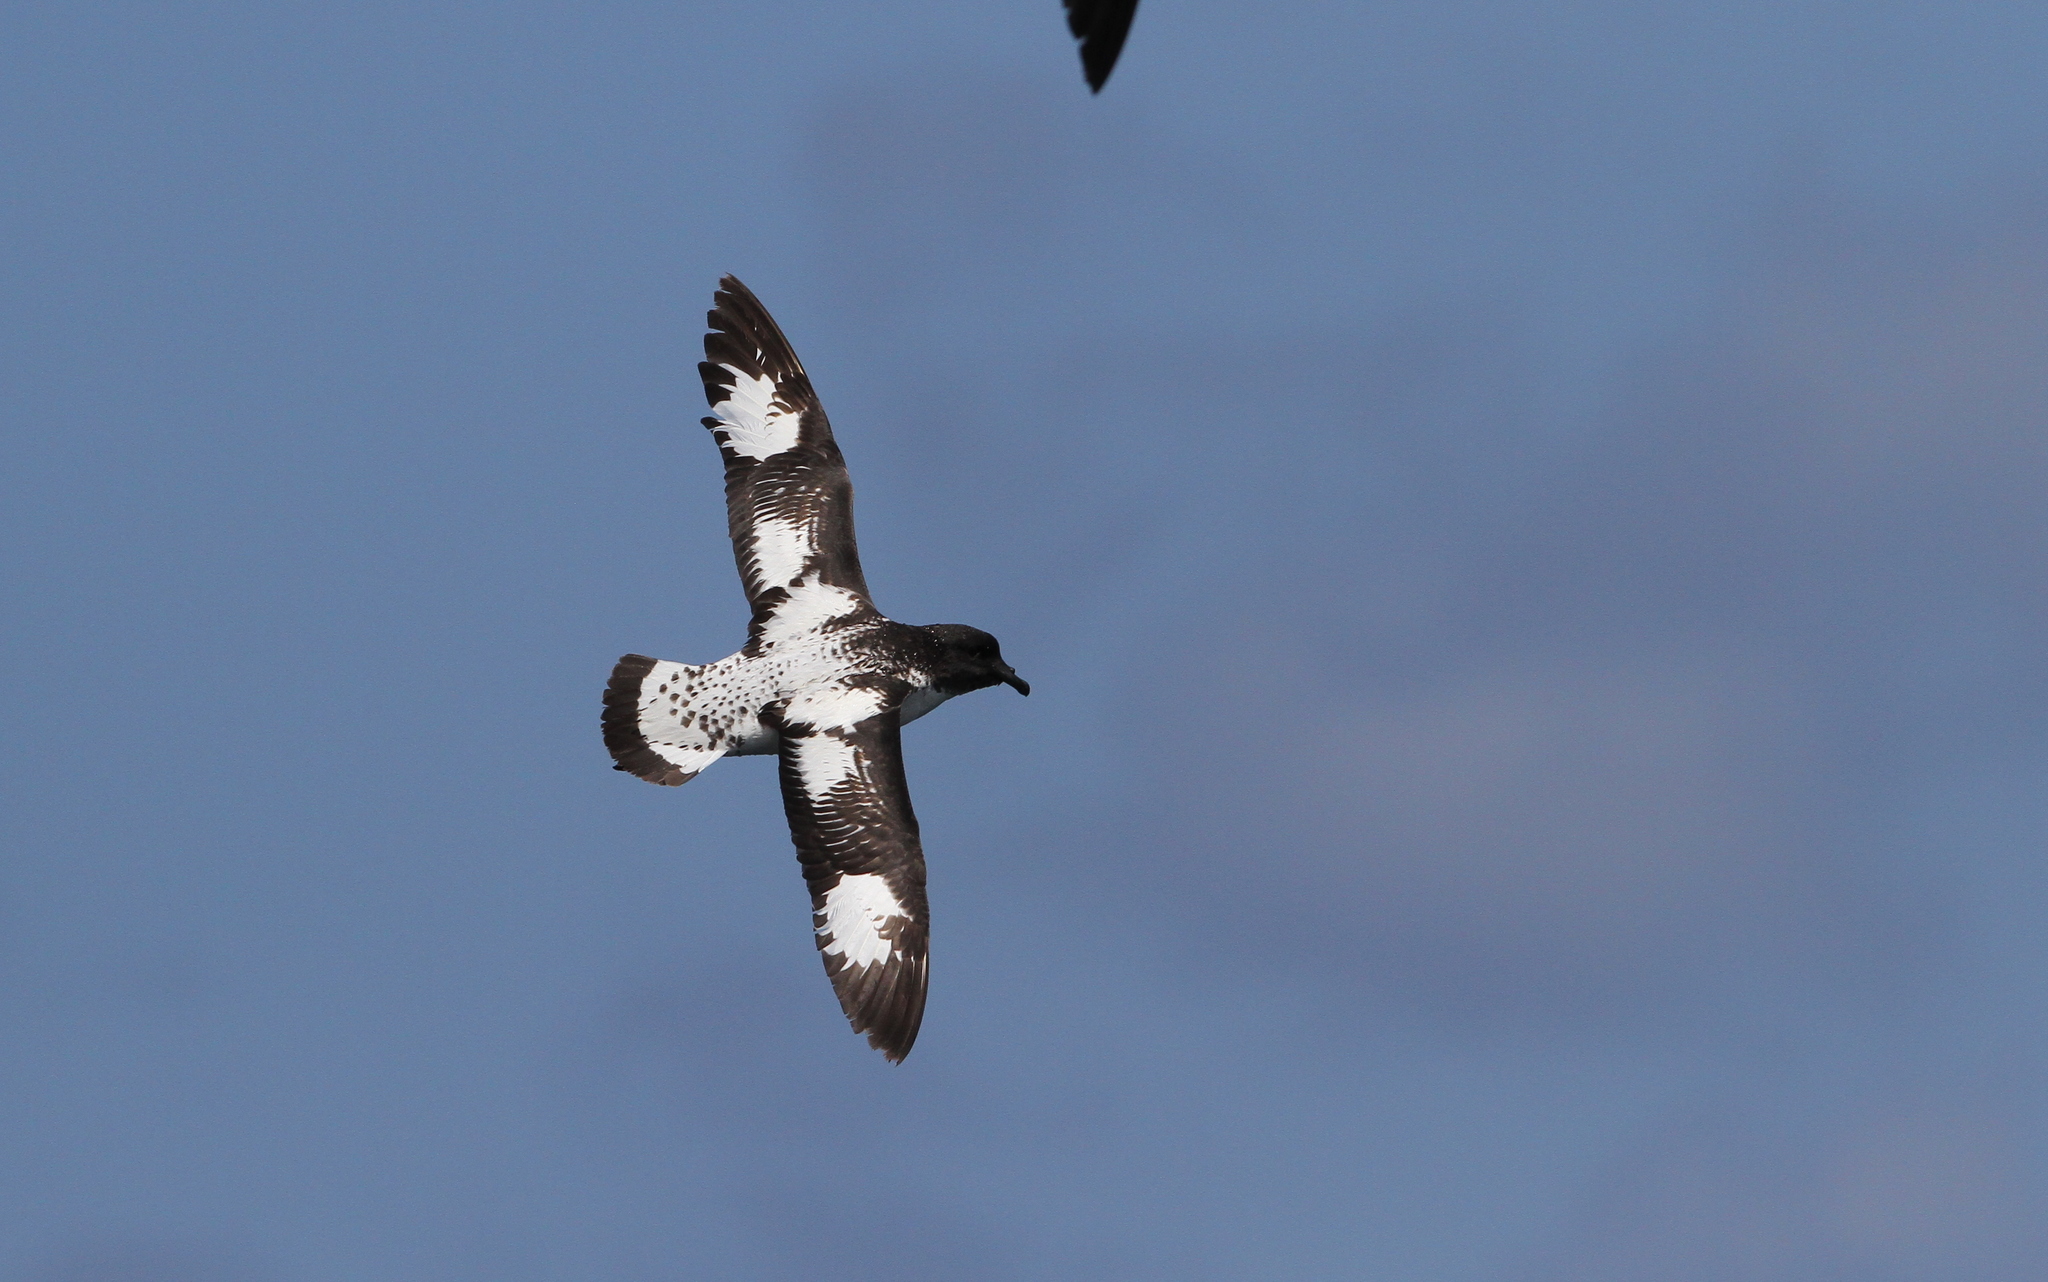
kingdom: Animalia
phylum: Chordata
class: Aves
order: Procellariiformes
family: Procellariidae
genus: Daption
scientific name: Daption capense
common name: Cape petrel
